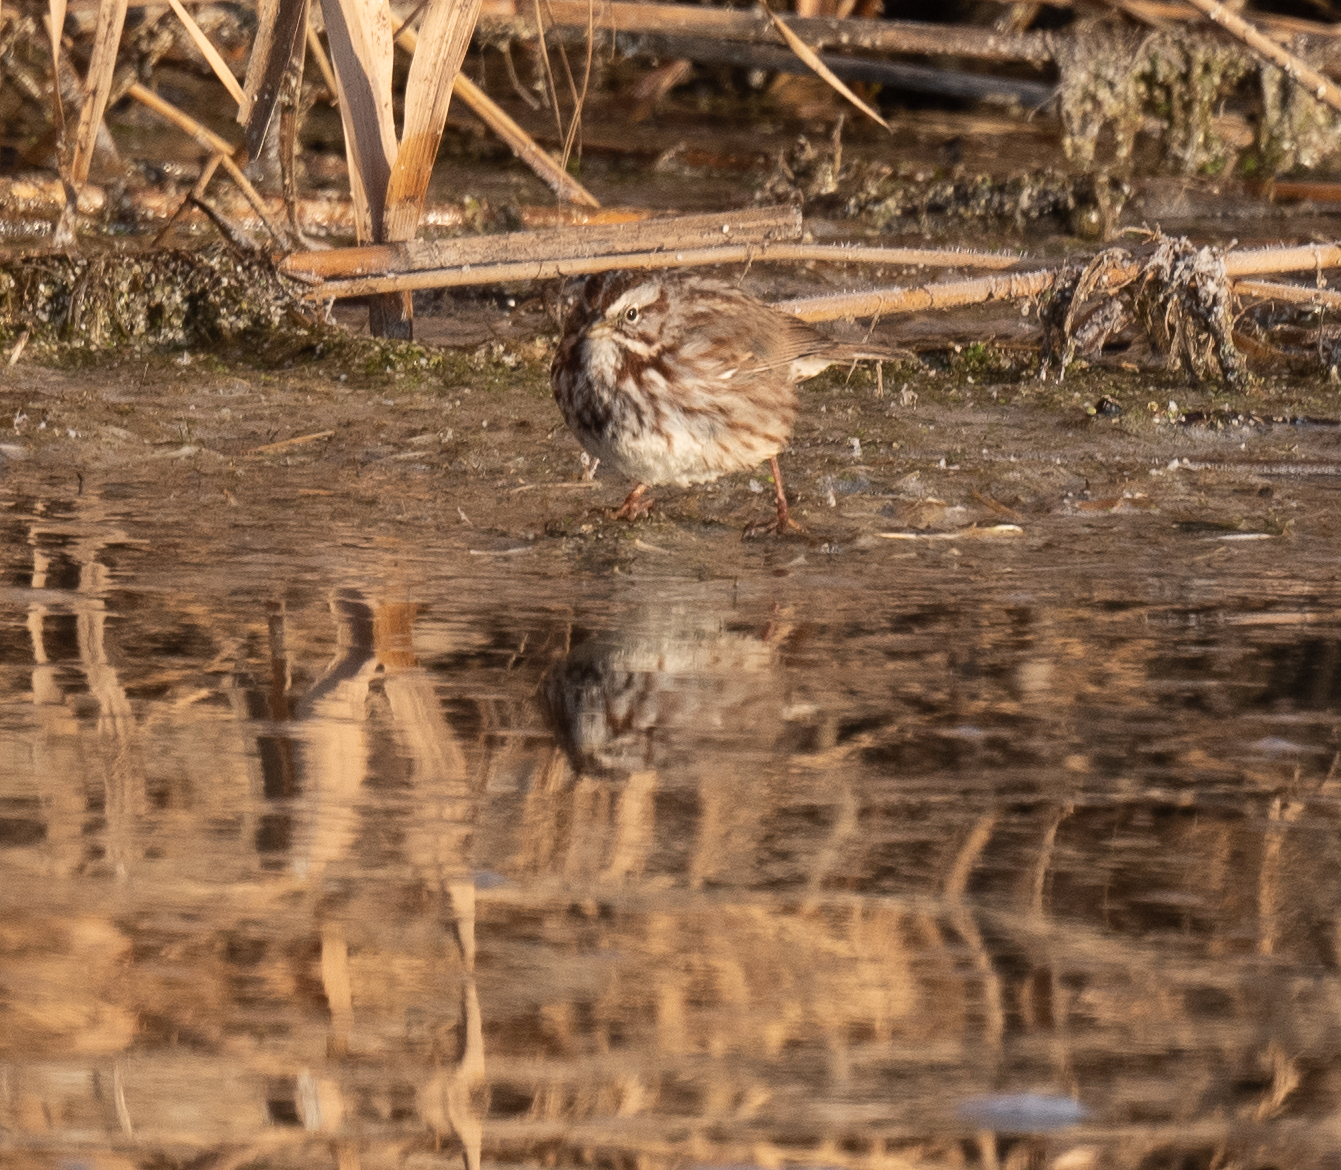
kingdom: Animalia
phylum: Chordata
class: Aves
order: Passeriformes
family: Passerellidae
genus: Melospiza
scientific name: Melospiza melodia
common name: Song sparrow
